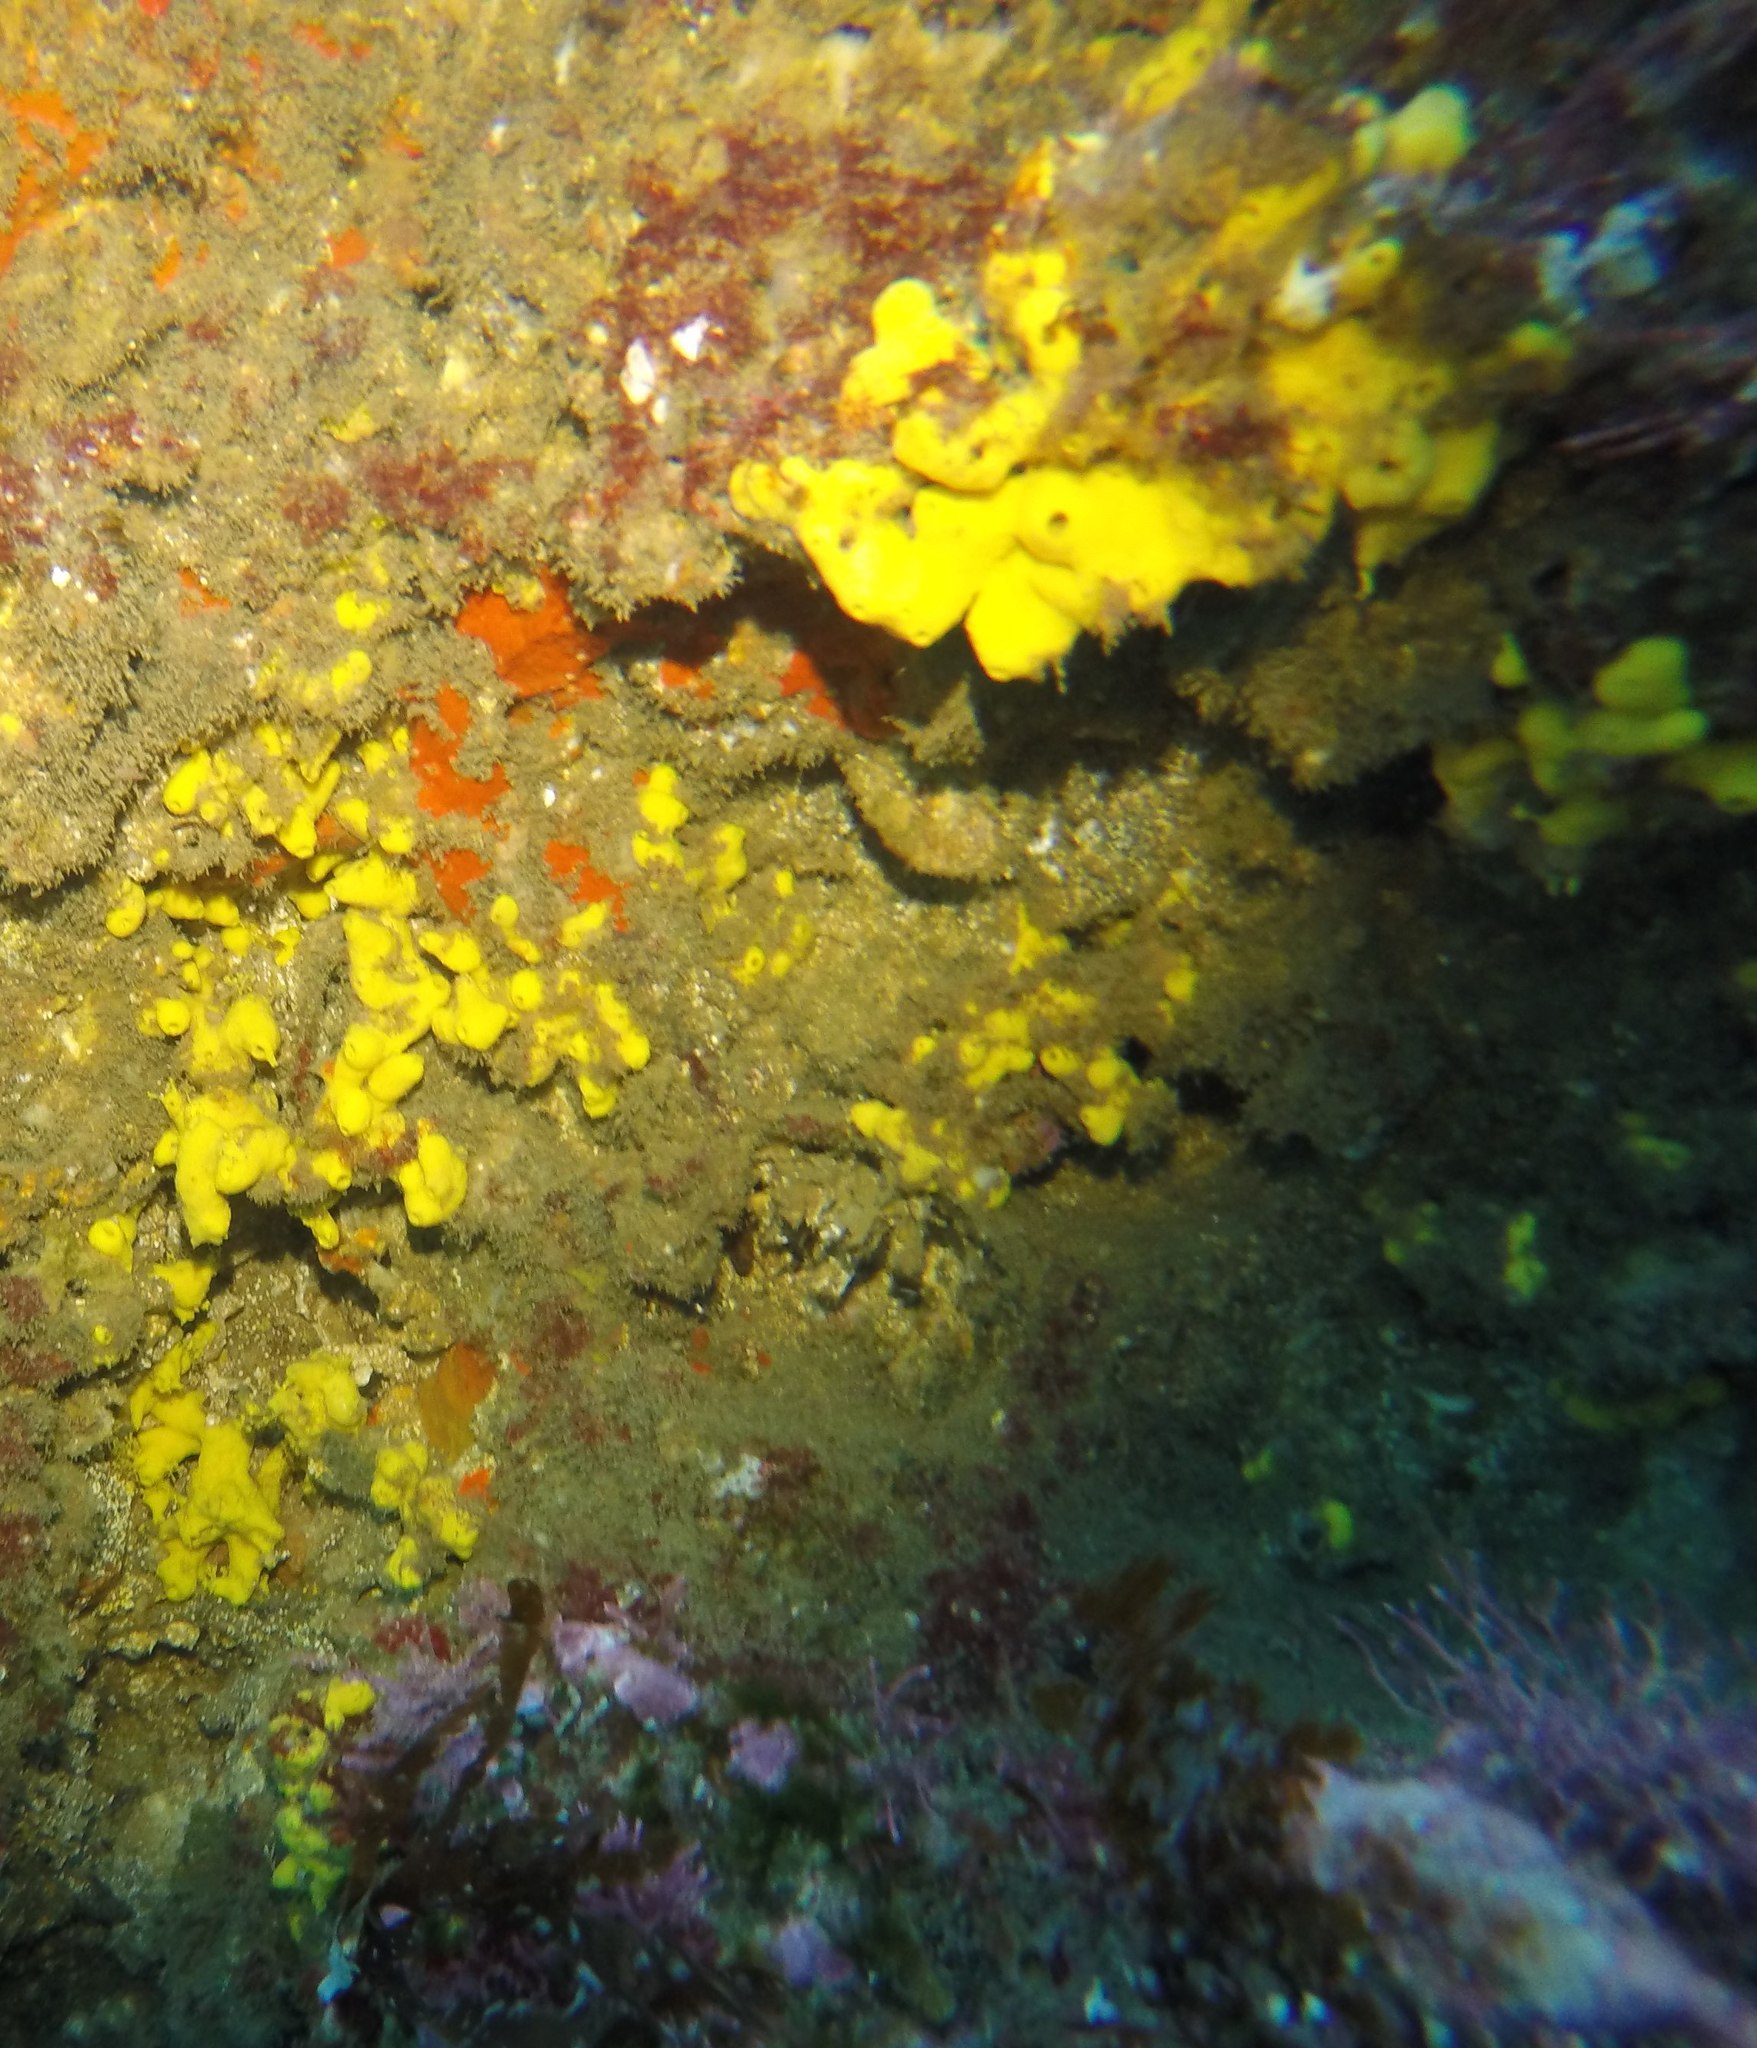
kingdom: Animalia
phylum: Porifera
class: Demospongiae
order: Verongiida
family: Aplysinidae
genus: Aiolochroia
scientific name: Aiolochroia thiona
